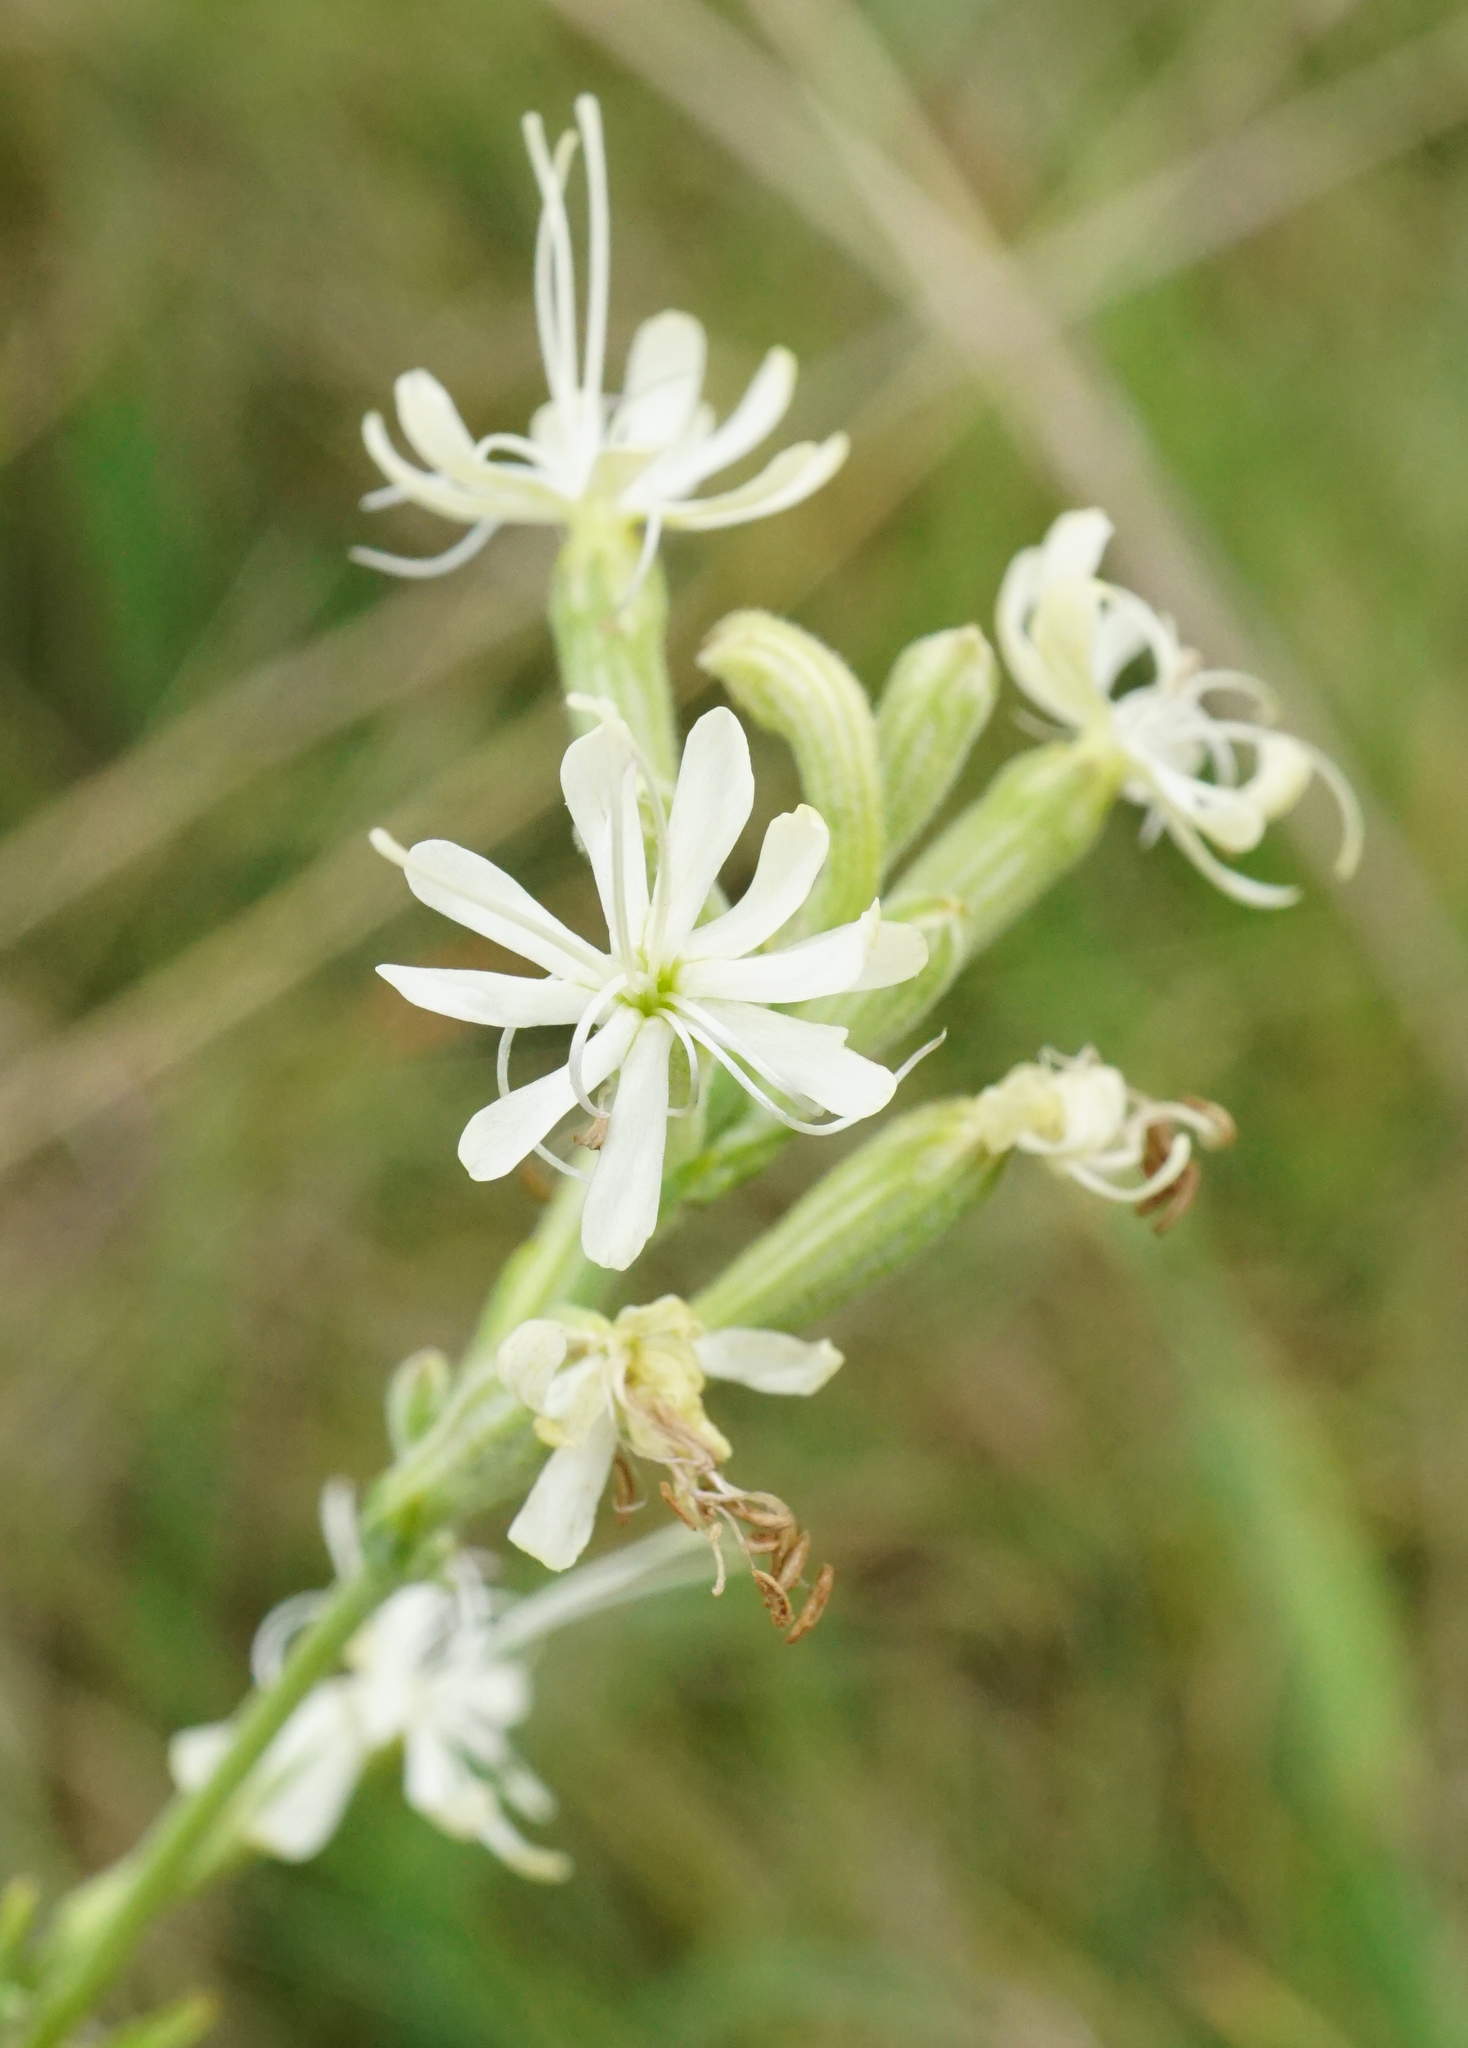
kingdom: Plantae
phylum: Tracheophyta
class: Magnoliopsida
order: Caryophyllales
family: Caryophyllaceae
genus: Silene
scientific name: Silene multiflora
